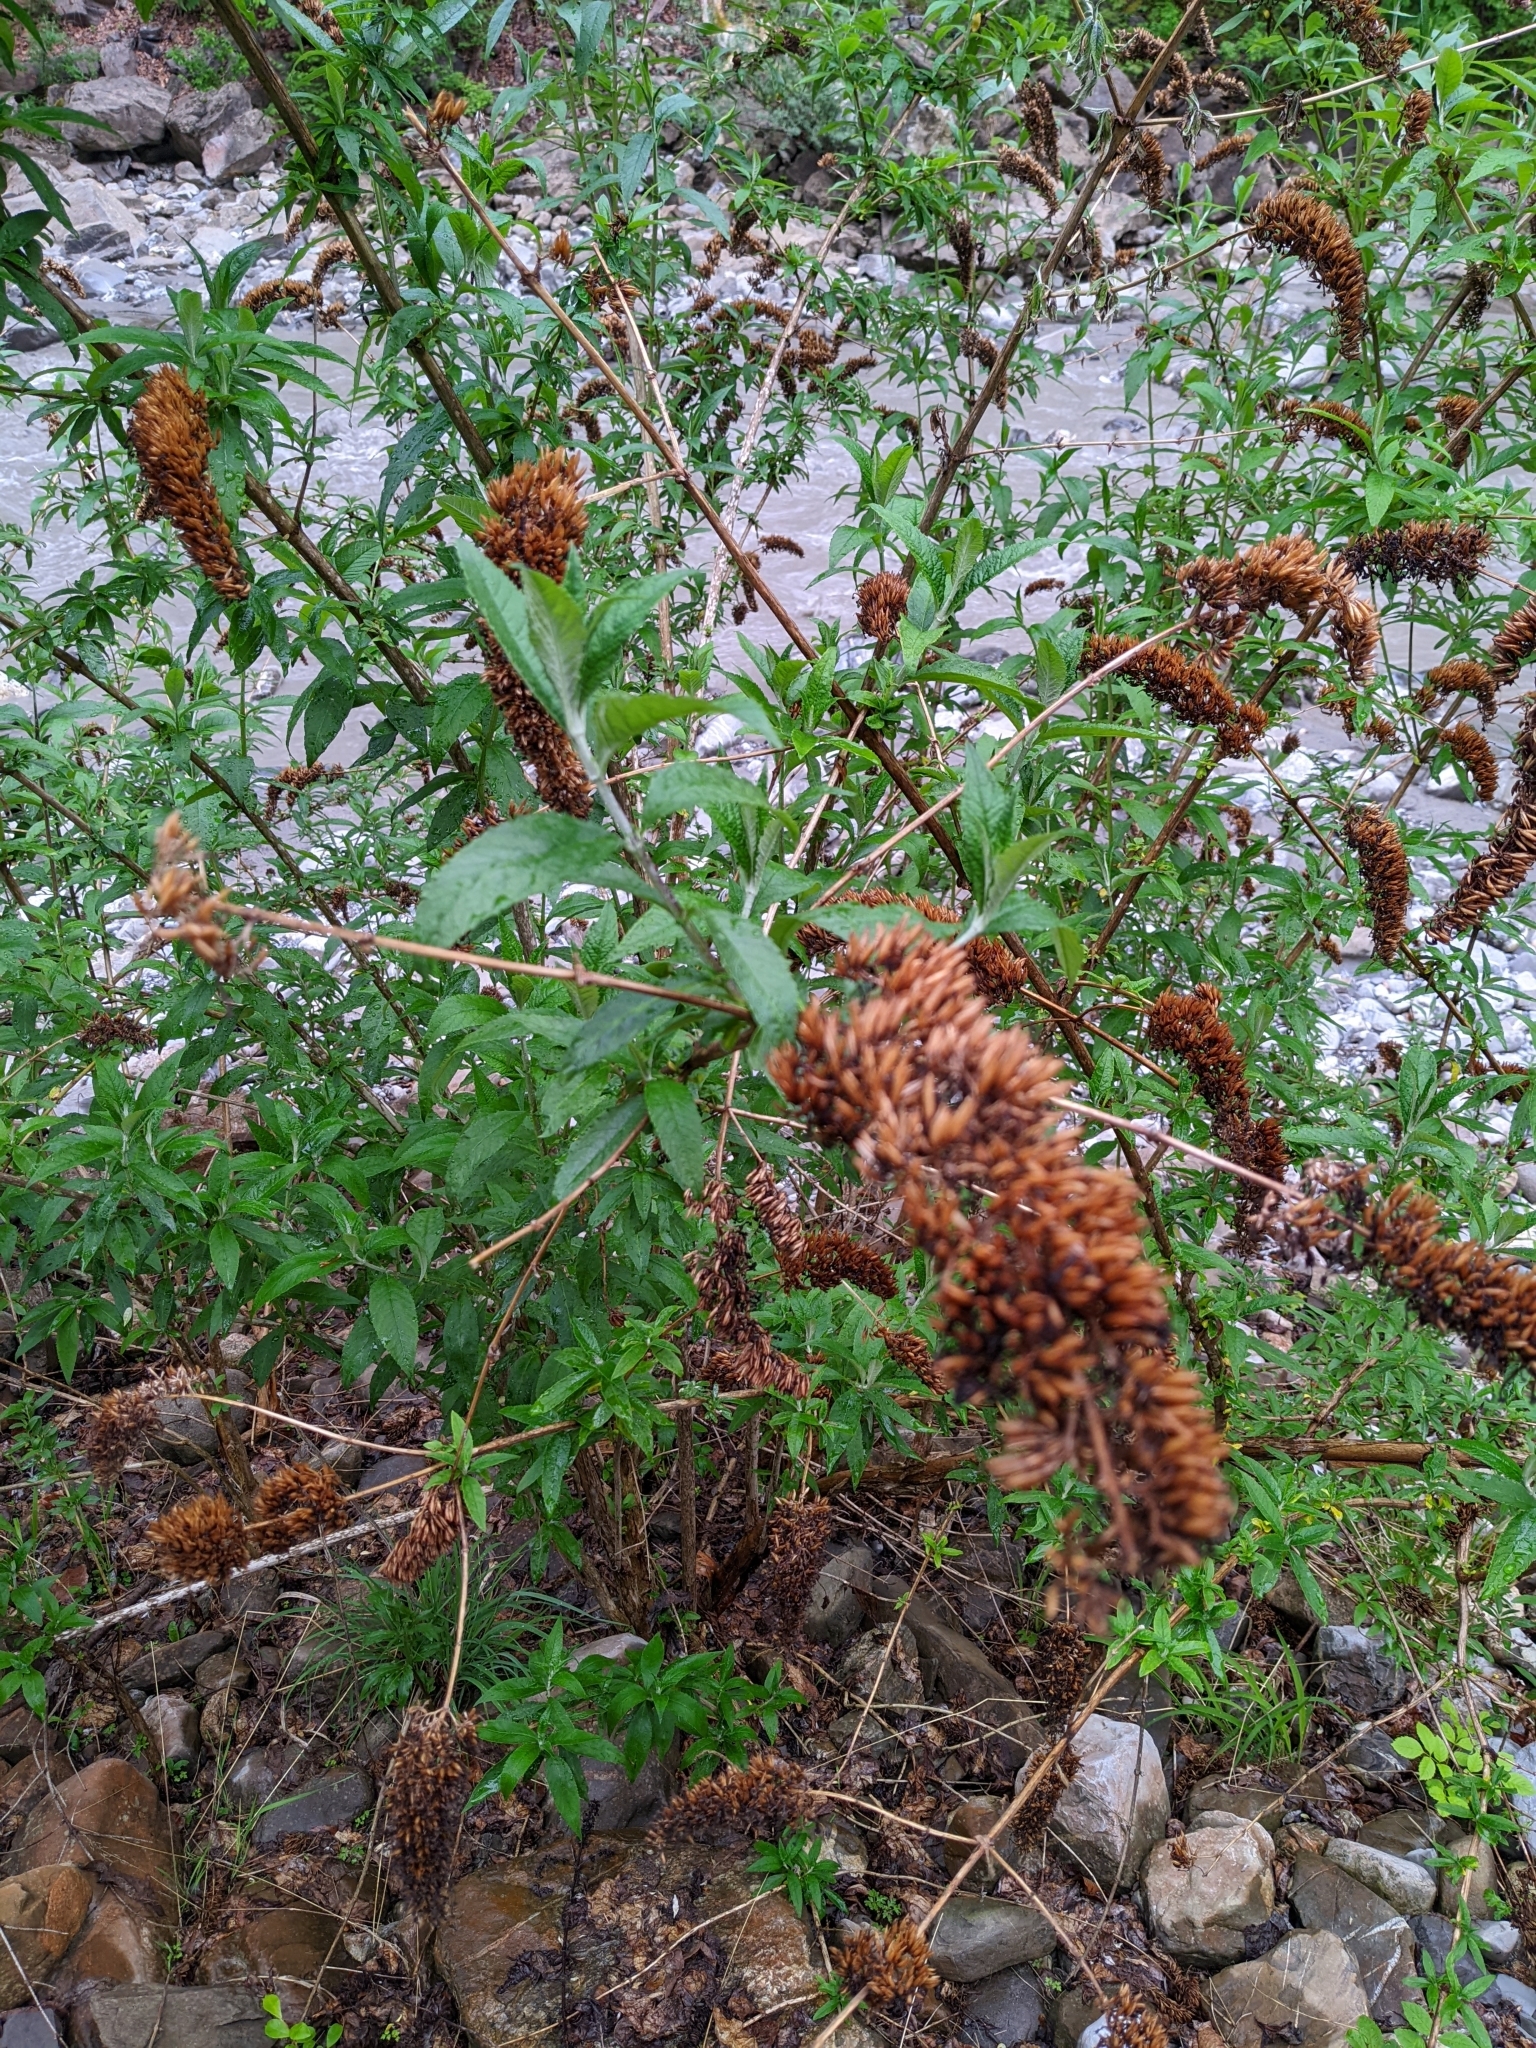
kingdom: Plantae
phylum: Tracheophyta
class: Magnoliopsida
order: Lamiales
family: Scrophulariaceae
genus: Buddleja
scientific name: Buddleja davidii
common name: Butterfly-bush
